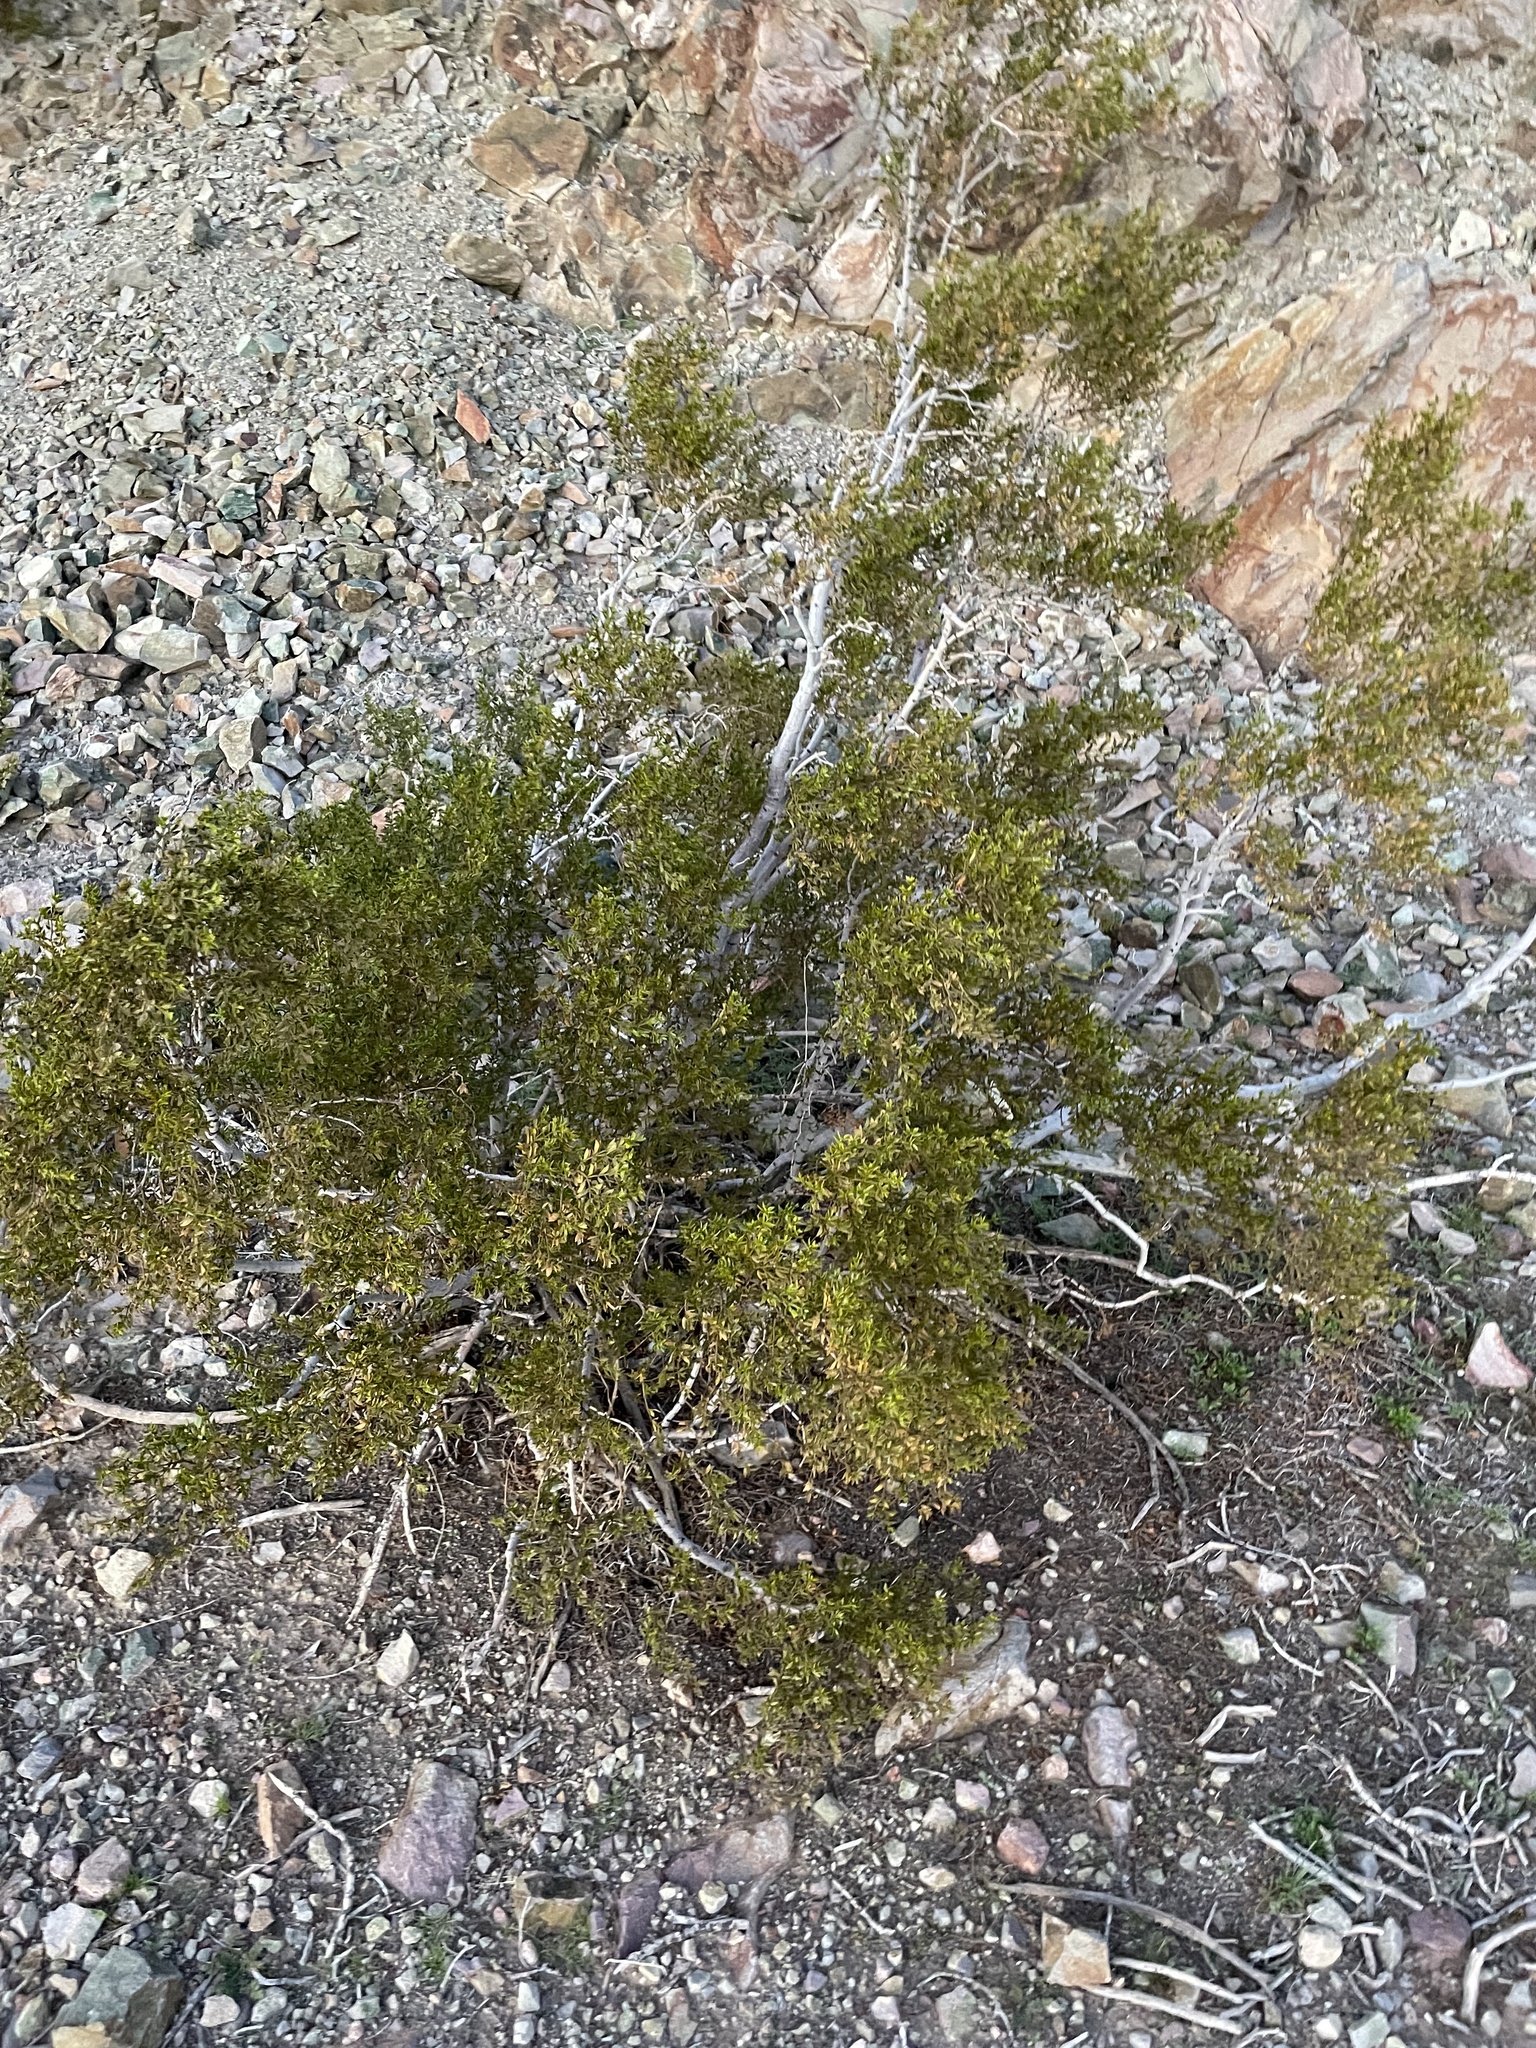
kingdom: Plantae
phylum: Tracheophyta
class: Magnoliopsida
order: Zygophyllales
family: Zygophyllaceae
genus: Larrea
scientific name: Larrea tridentata
